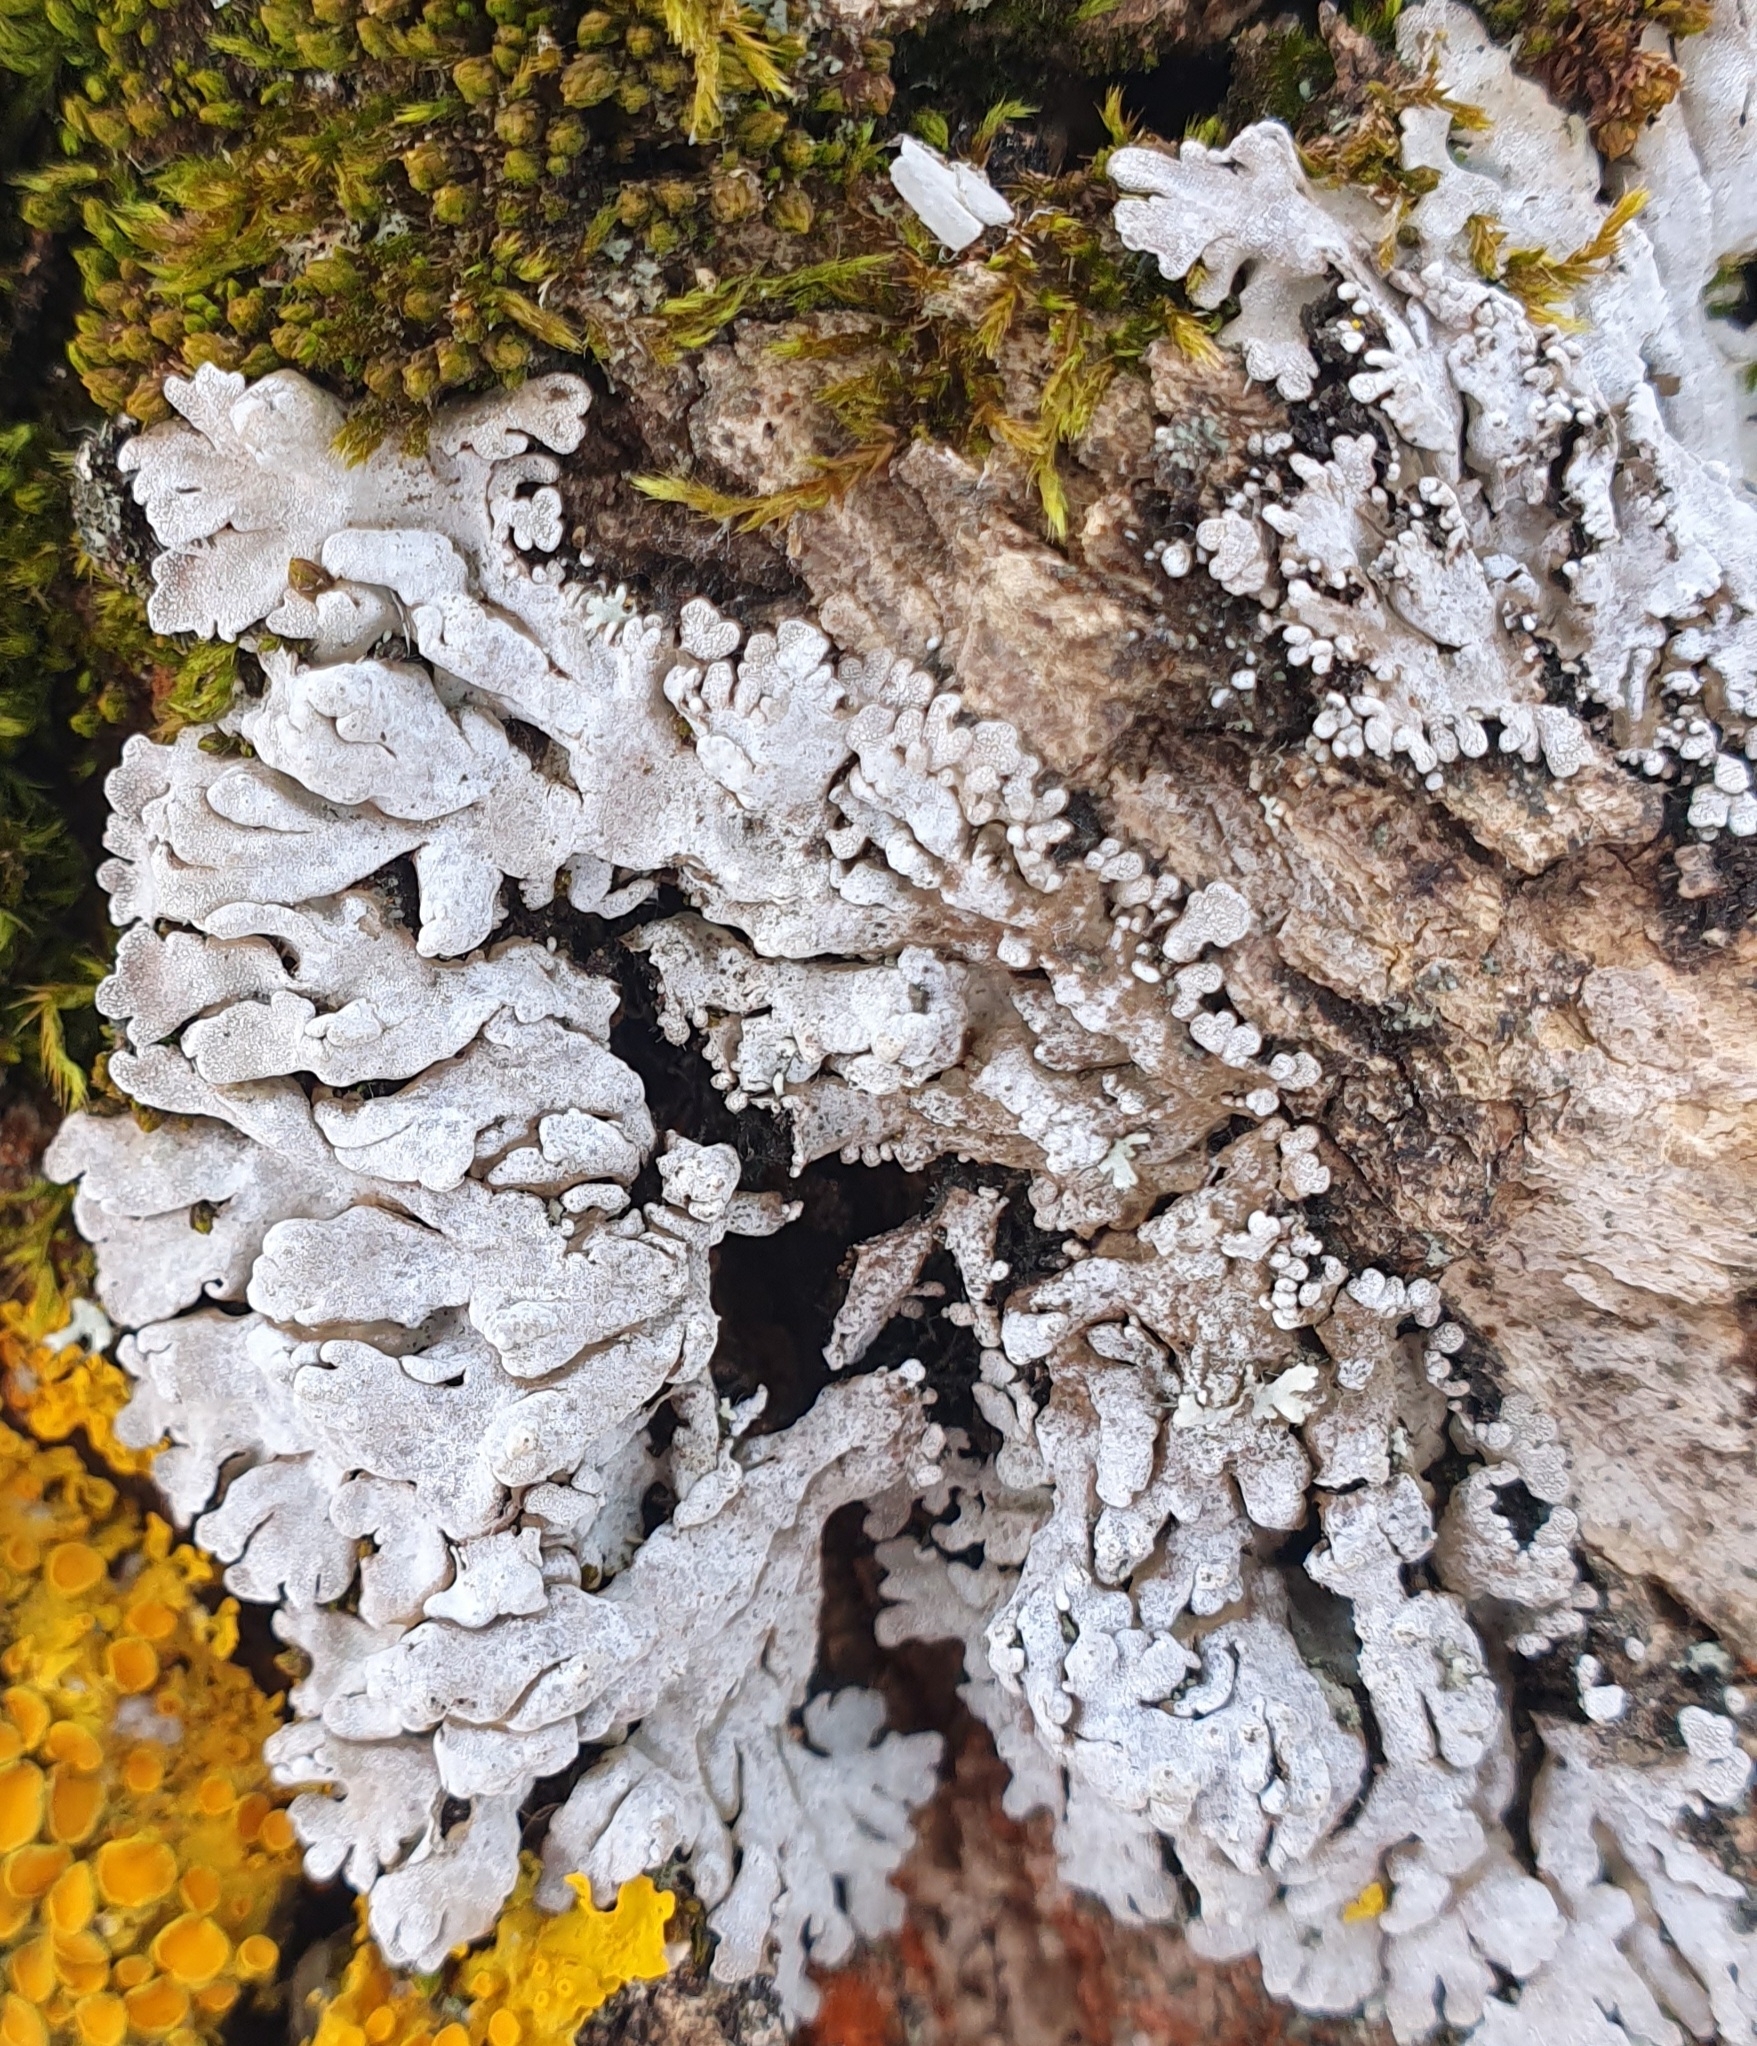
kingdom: Fungi
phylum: Ascomycota
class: Lecanoromycetes
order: Caliciales
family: Physciaceae
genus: Physconia
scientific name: Physconia distorta
